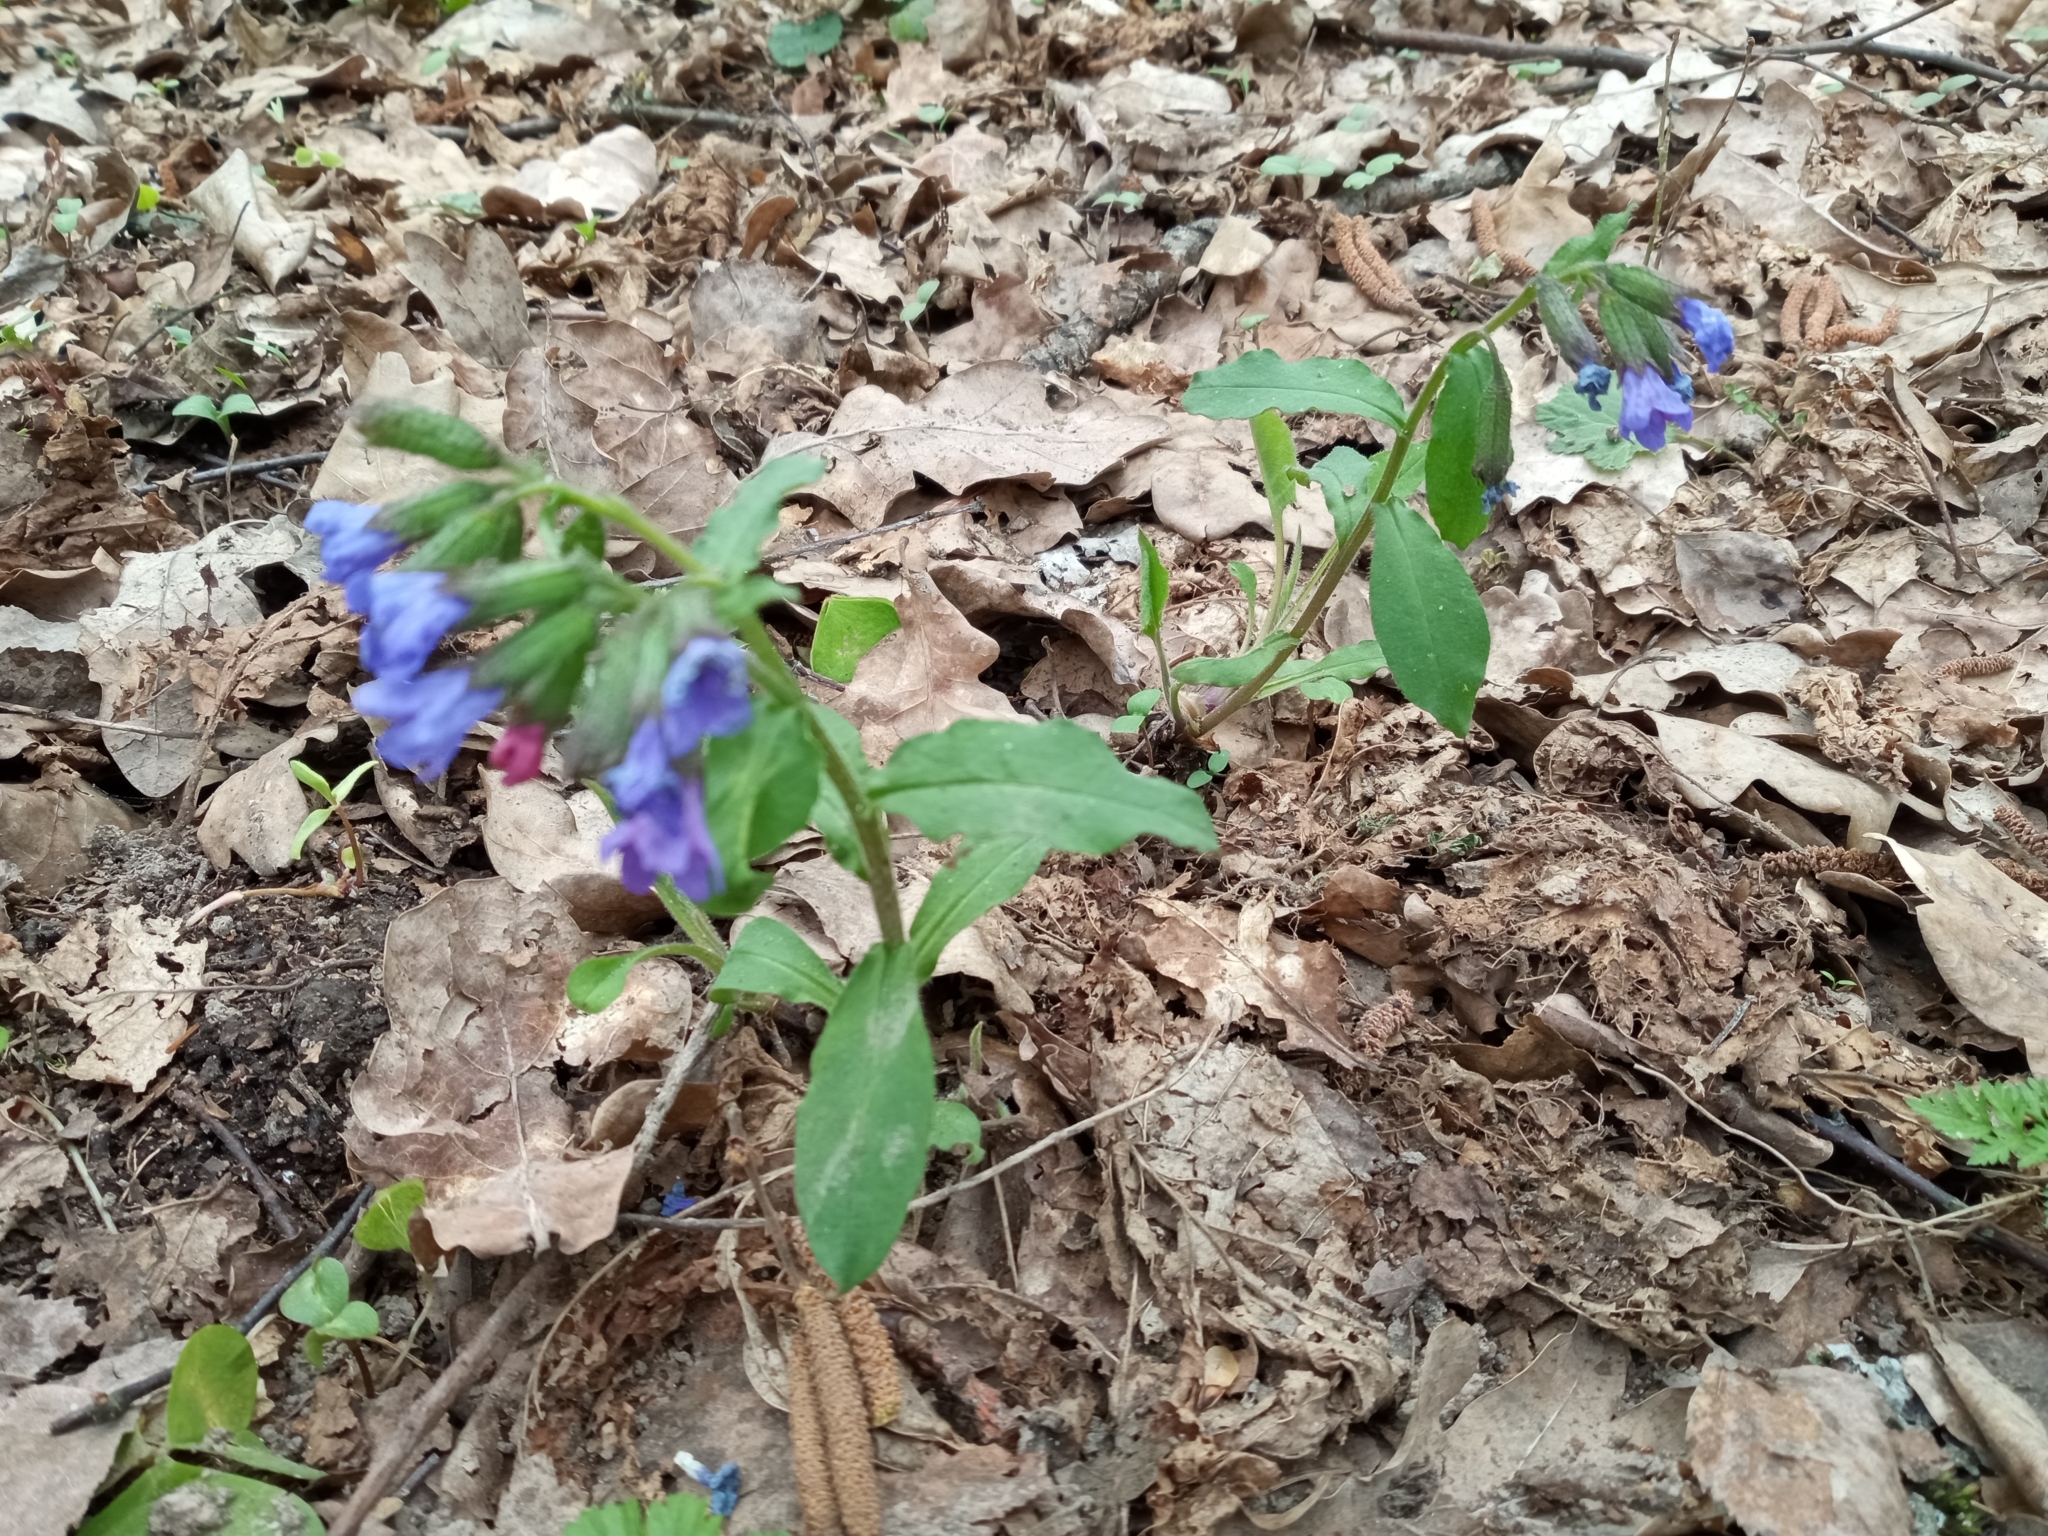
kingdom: Plantae
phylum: Tracheophyta
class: Magnoliopsida
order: Boraginales
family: Boraginaceae
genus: Pulmonaria
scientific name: Pulmonaria obscura
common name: Suffolk lungwort
